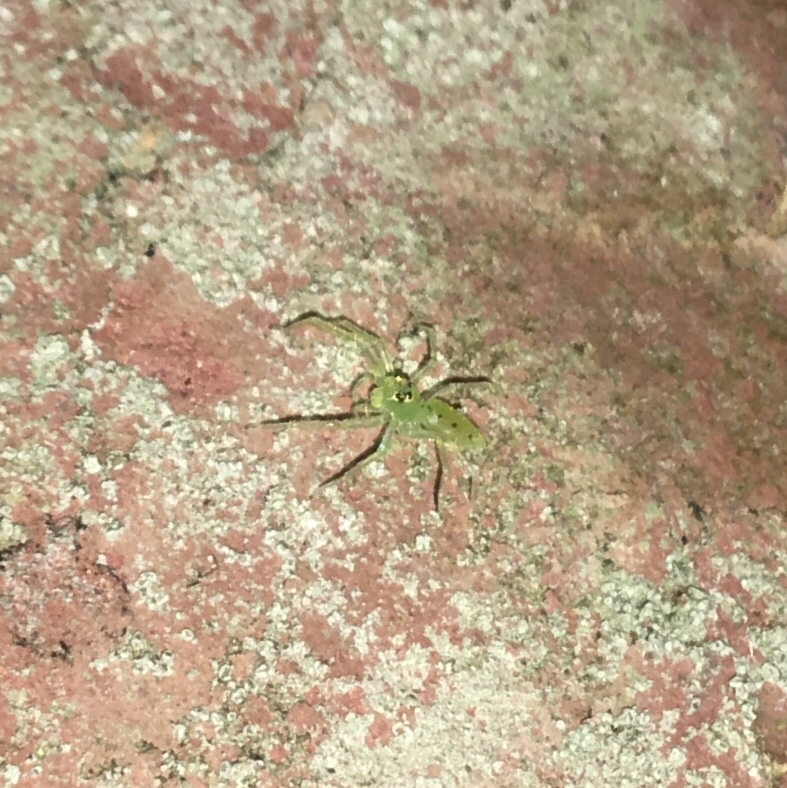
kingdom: Animalia
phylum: Arthropoda
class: Arachnida
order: Araneae
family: Salticidae
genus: Lyssomanes
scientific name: Lyssomanes viridis
